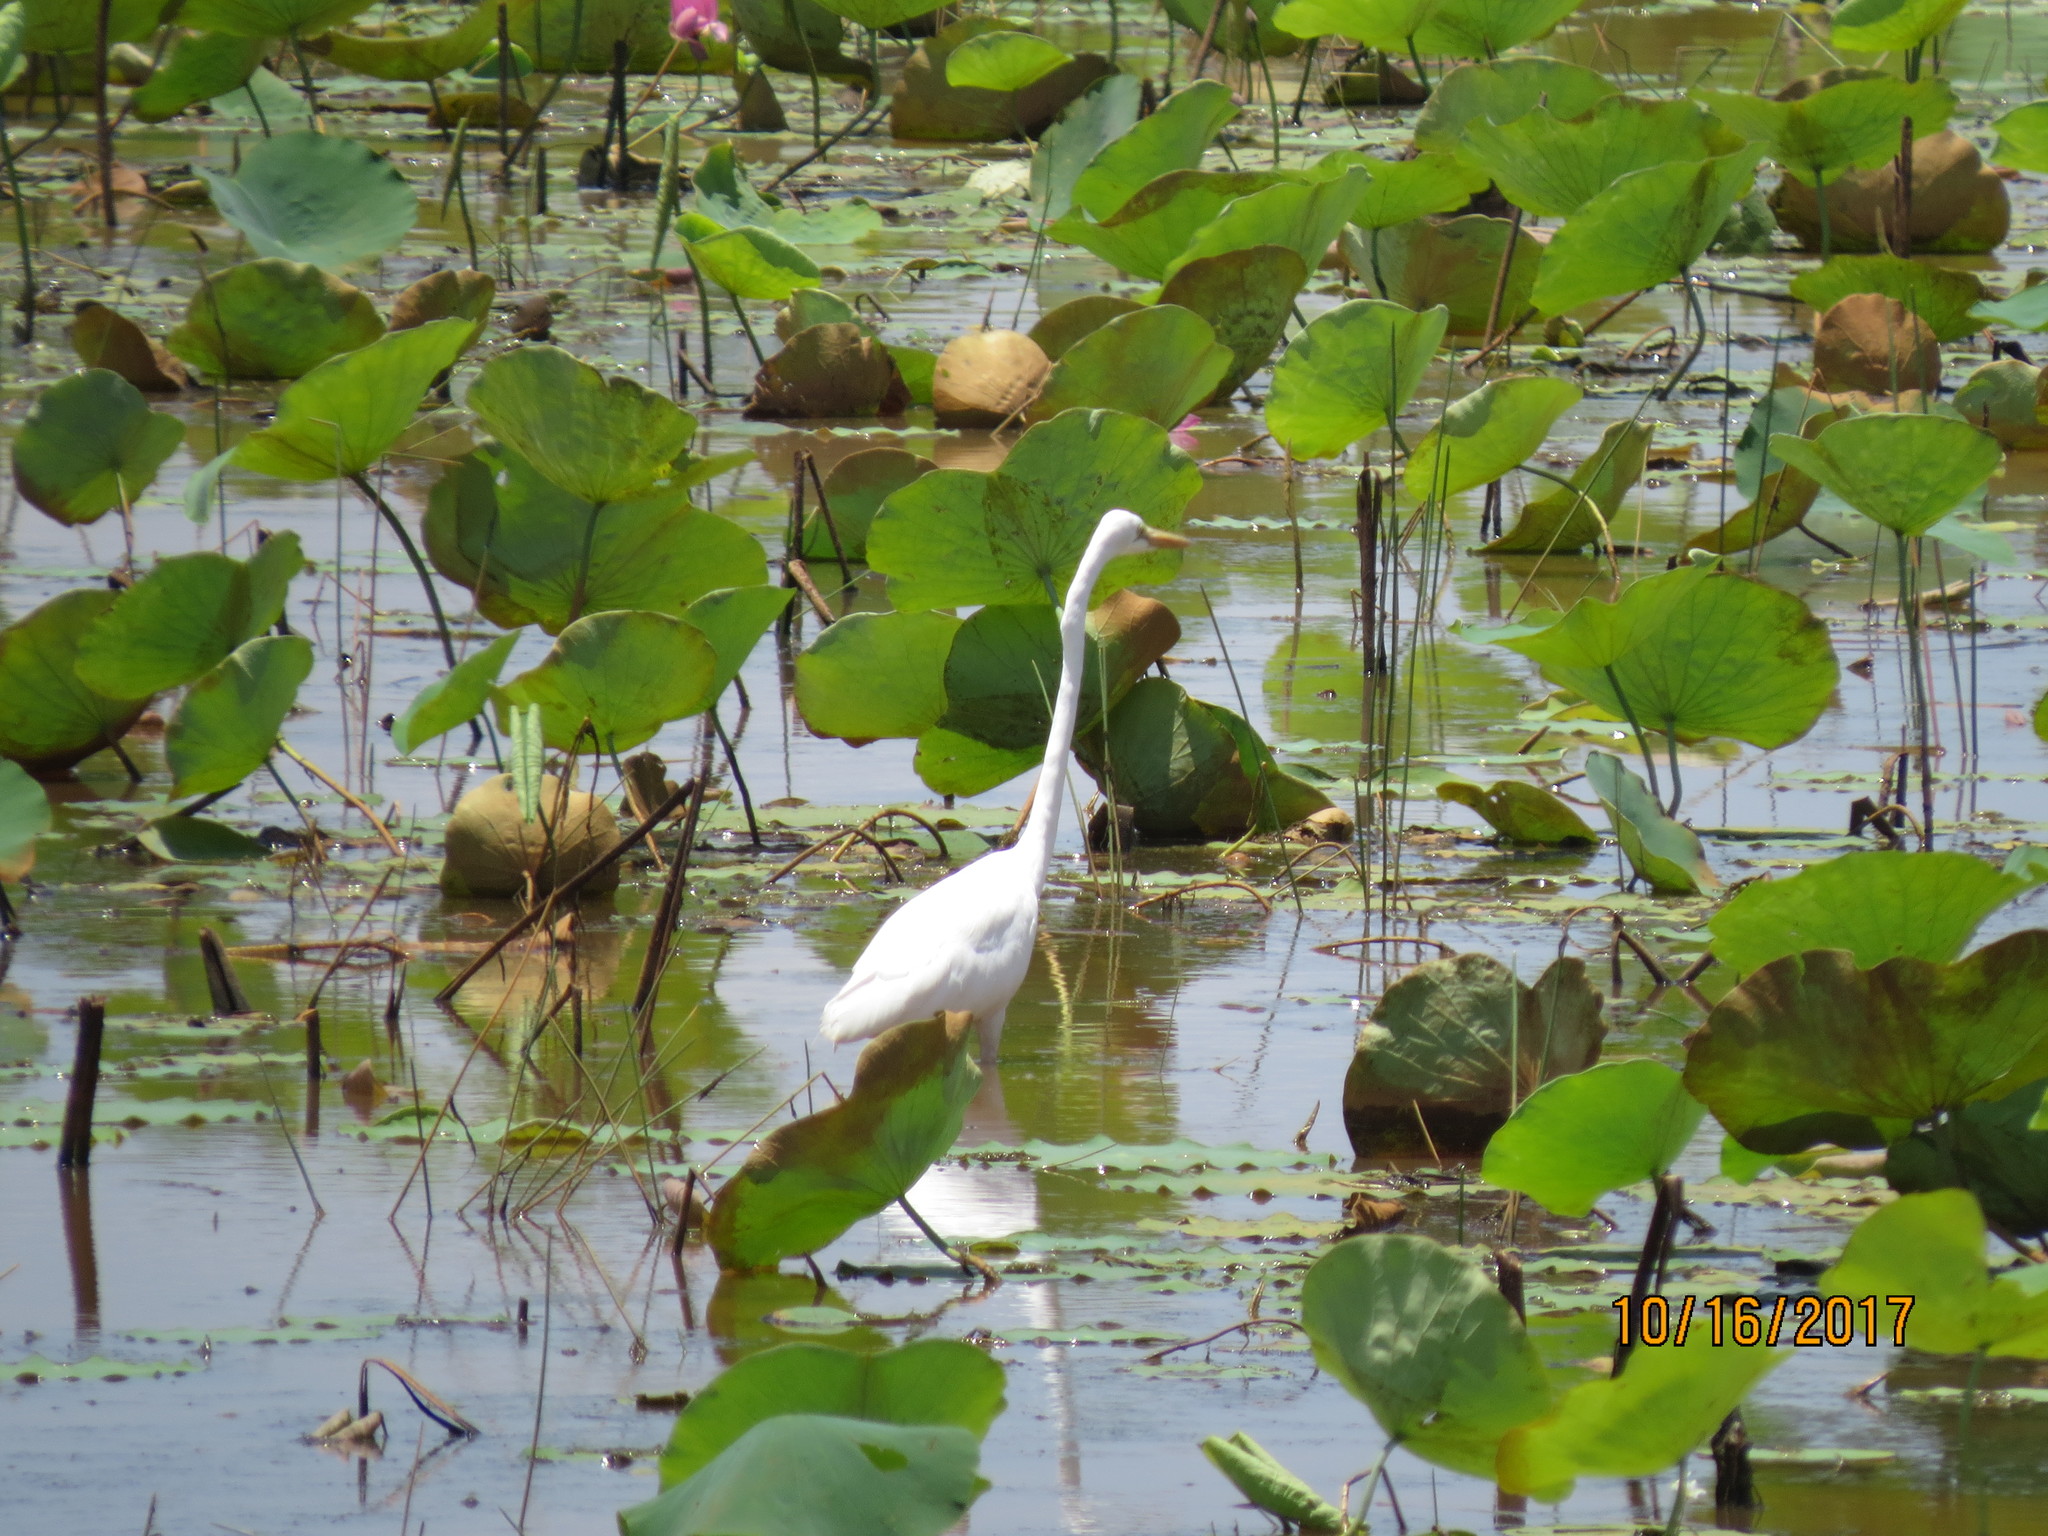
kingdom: Animalia
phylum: Chordata
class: Aves
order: Pelecaniformes
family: Ardeidae
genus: Ardea
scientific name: Ardea modesta
